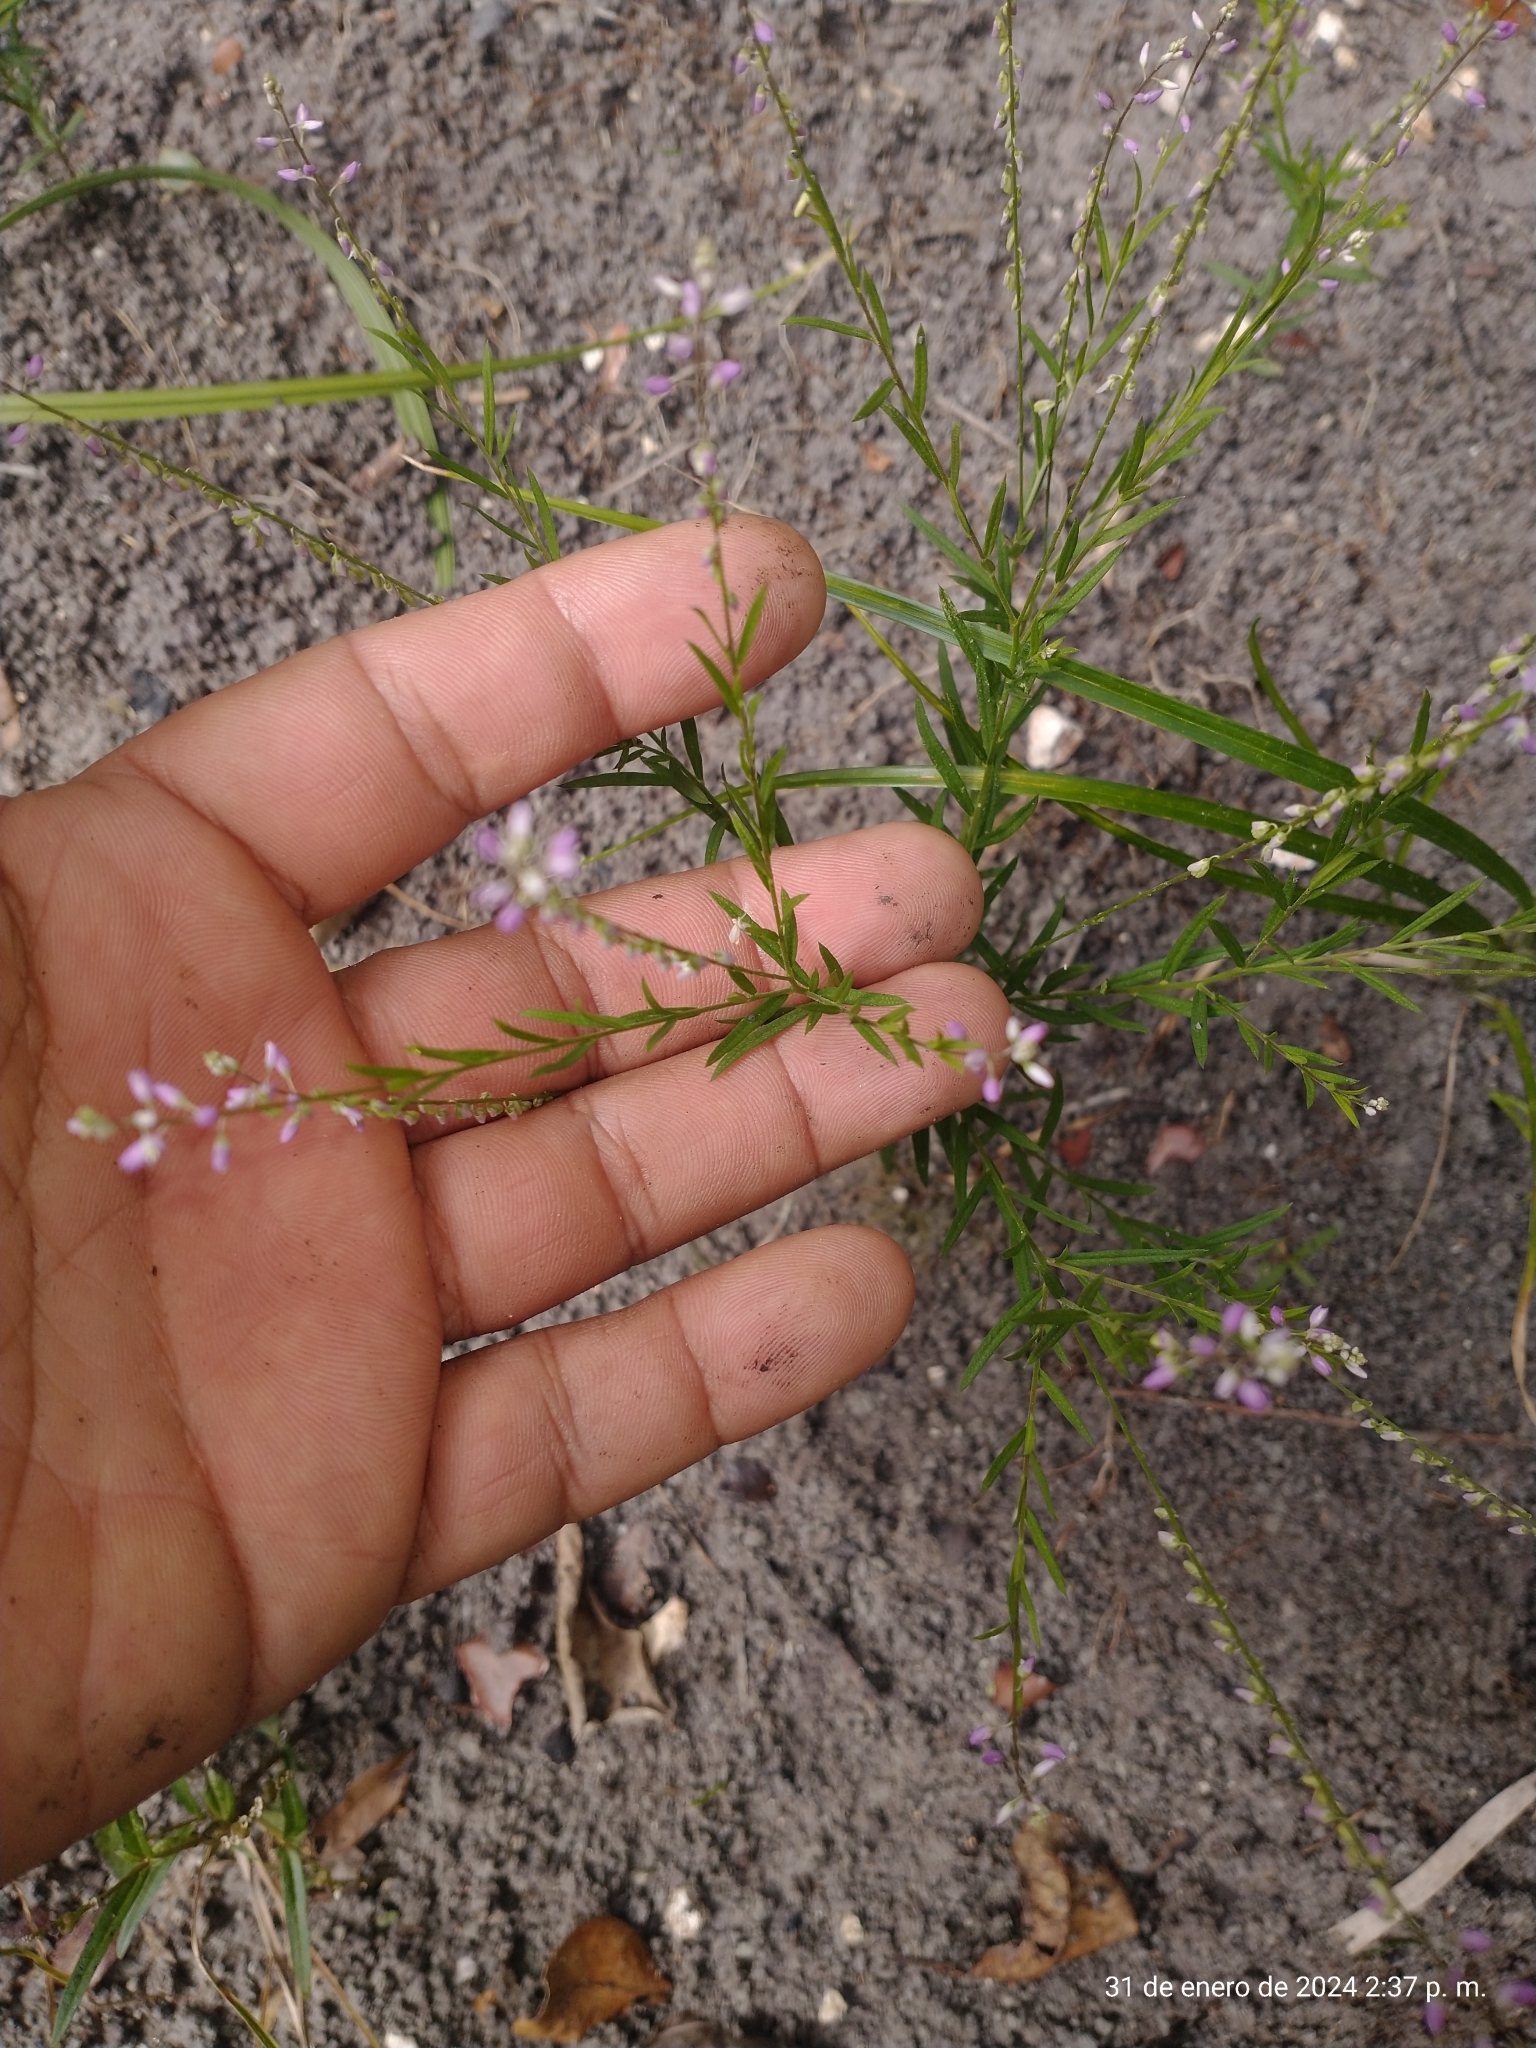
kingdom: Plantae
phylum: Tracheophyta
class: Magnoliopsida
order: Fabales
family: Polygalaceae
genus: Polygala
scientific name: Polygala paniculata
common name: Orosne
